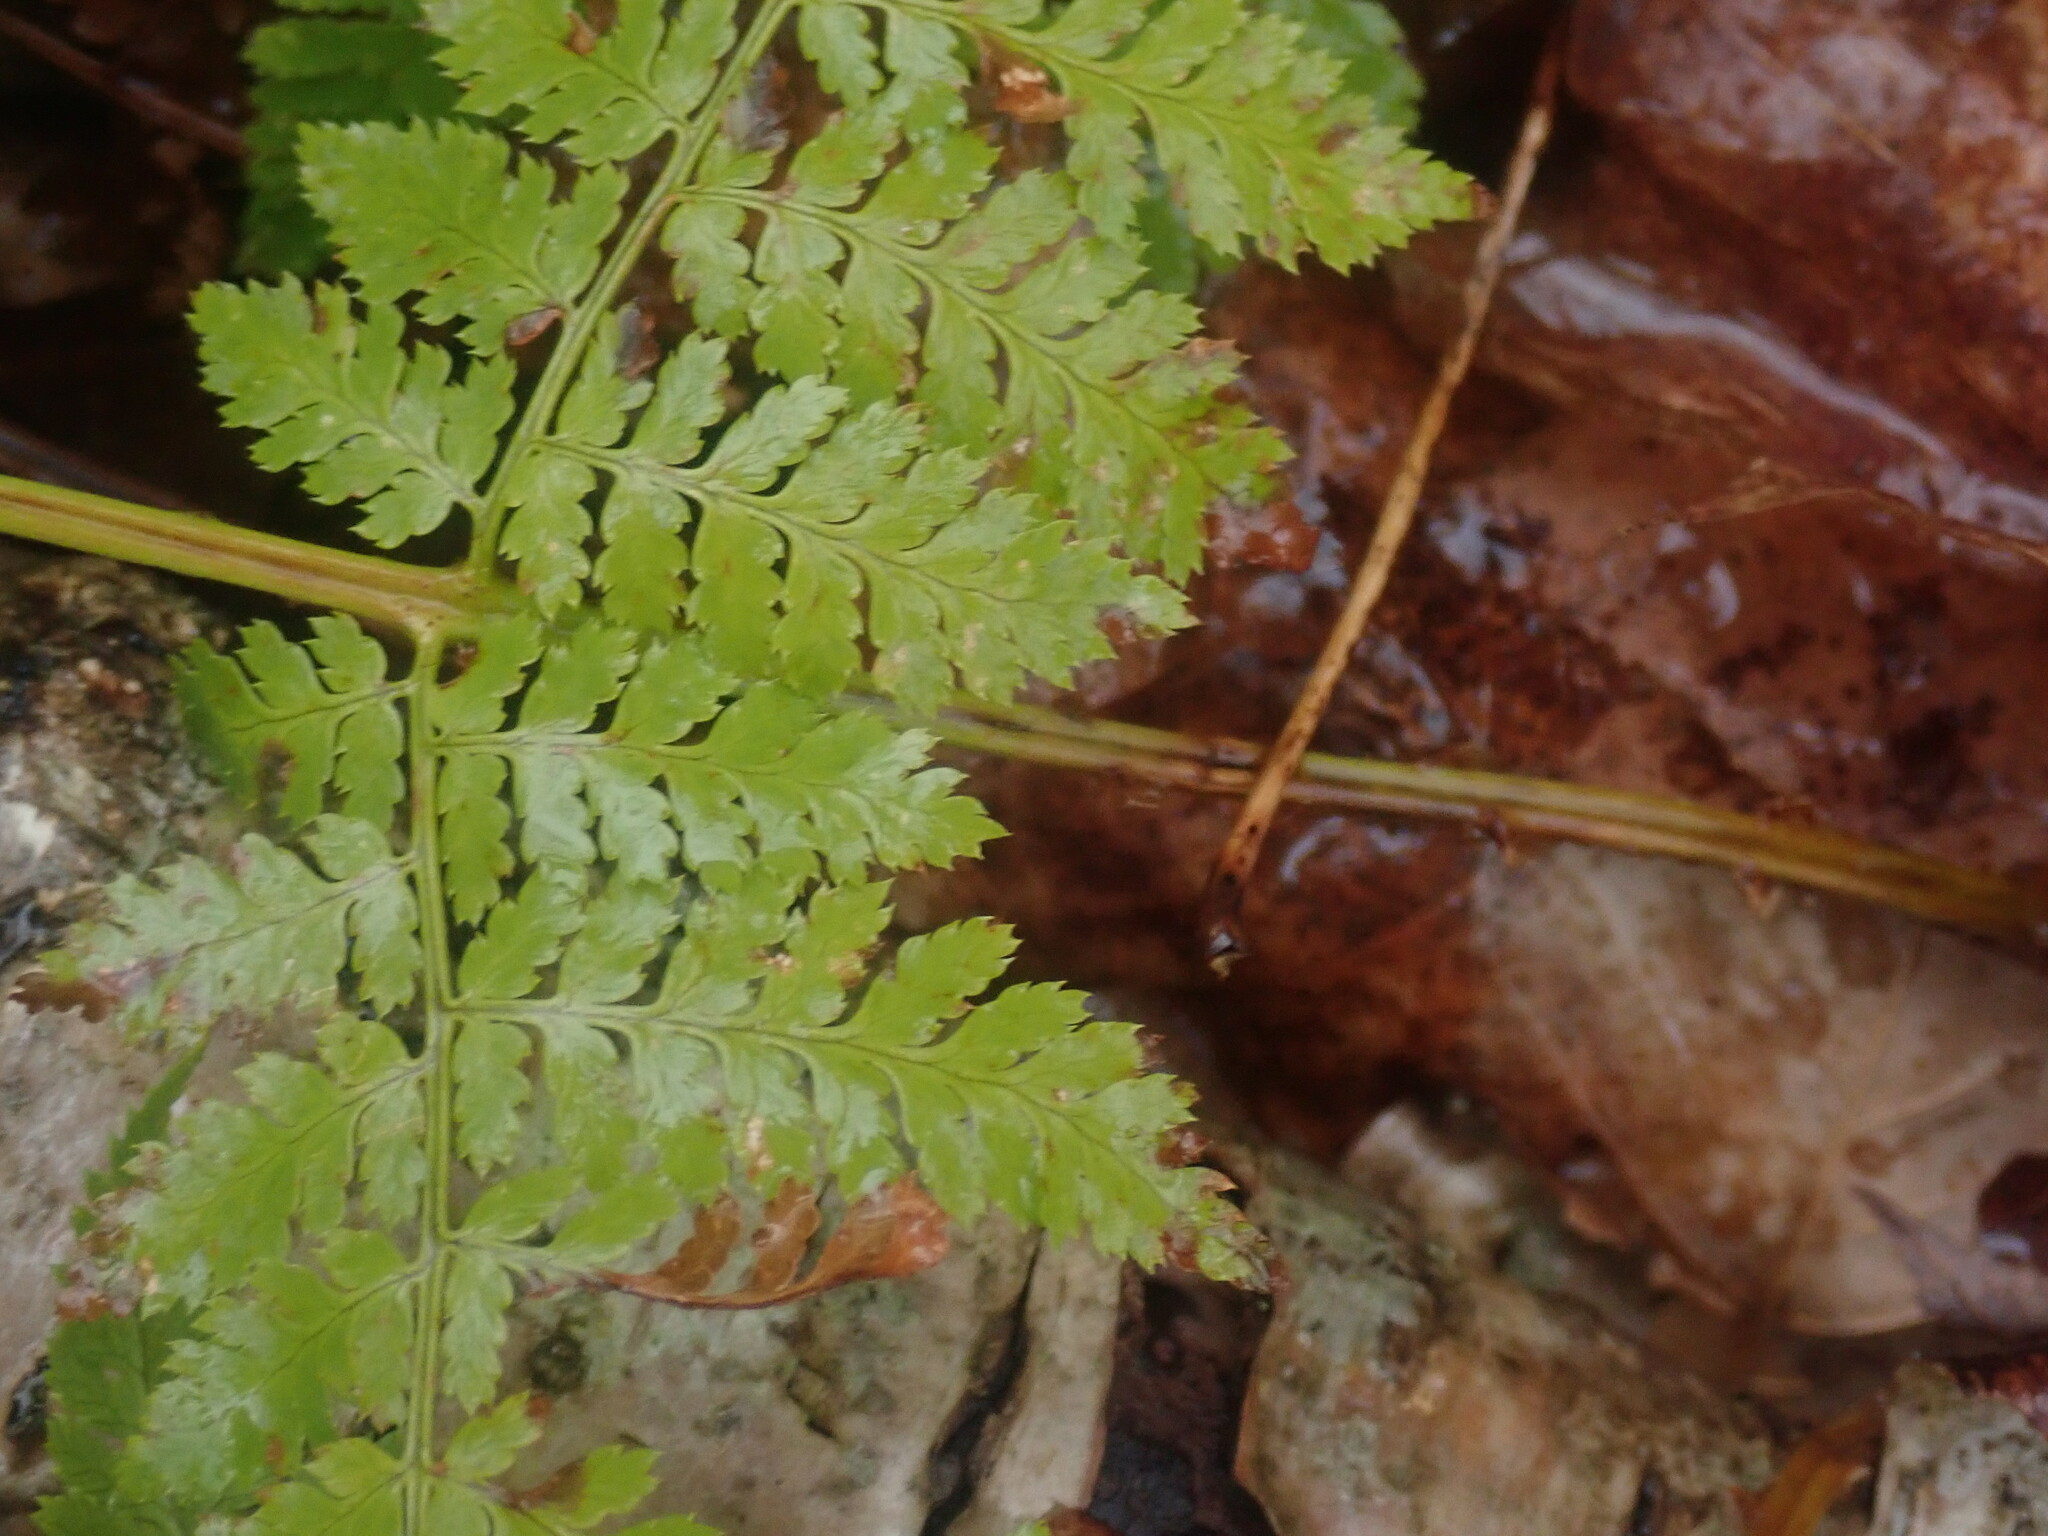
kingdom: Plantae
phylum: Tracheophyta
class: Polypodiopsida
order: Polypodiales
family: Dryopteridaceae
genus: Dryopteris
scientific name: Dryopteris intermedia
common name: Evergreen wood fern
